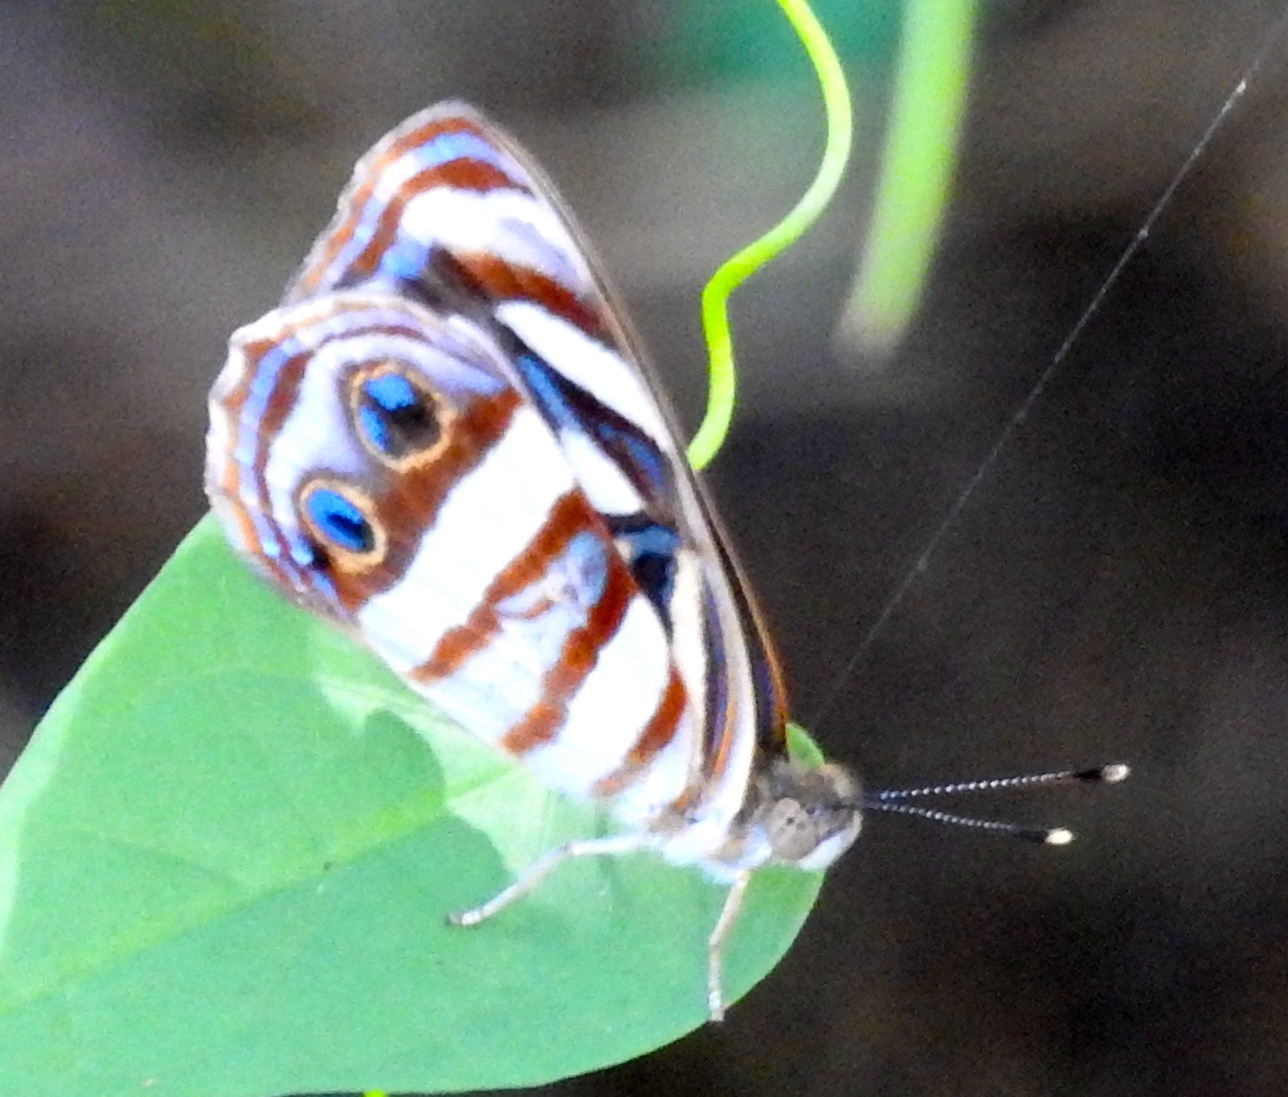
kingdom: Animalia
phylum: Arthropoda
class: Insecta
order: Lepidoptera
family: Nymphalidae
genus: Dynamine
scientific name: Dynamine mylitta
